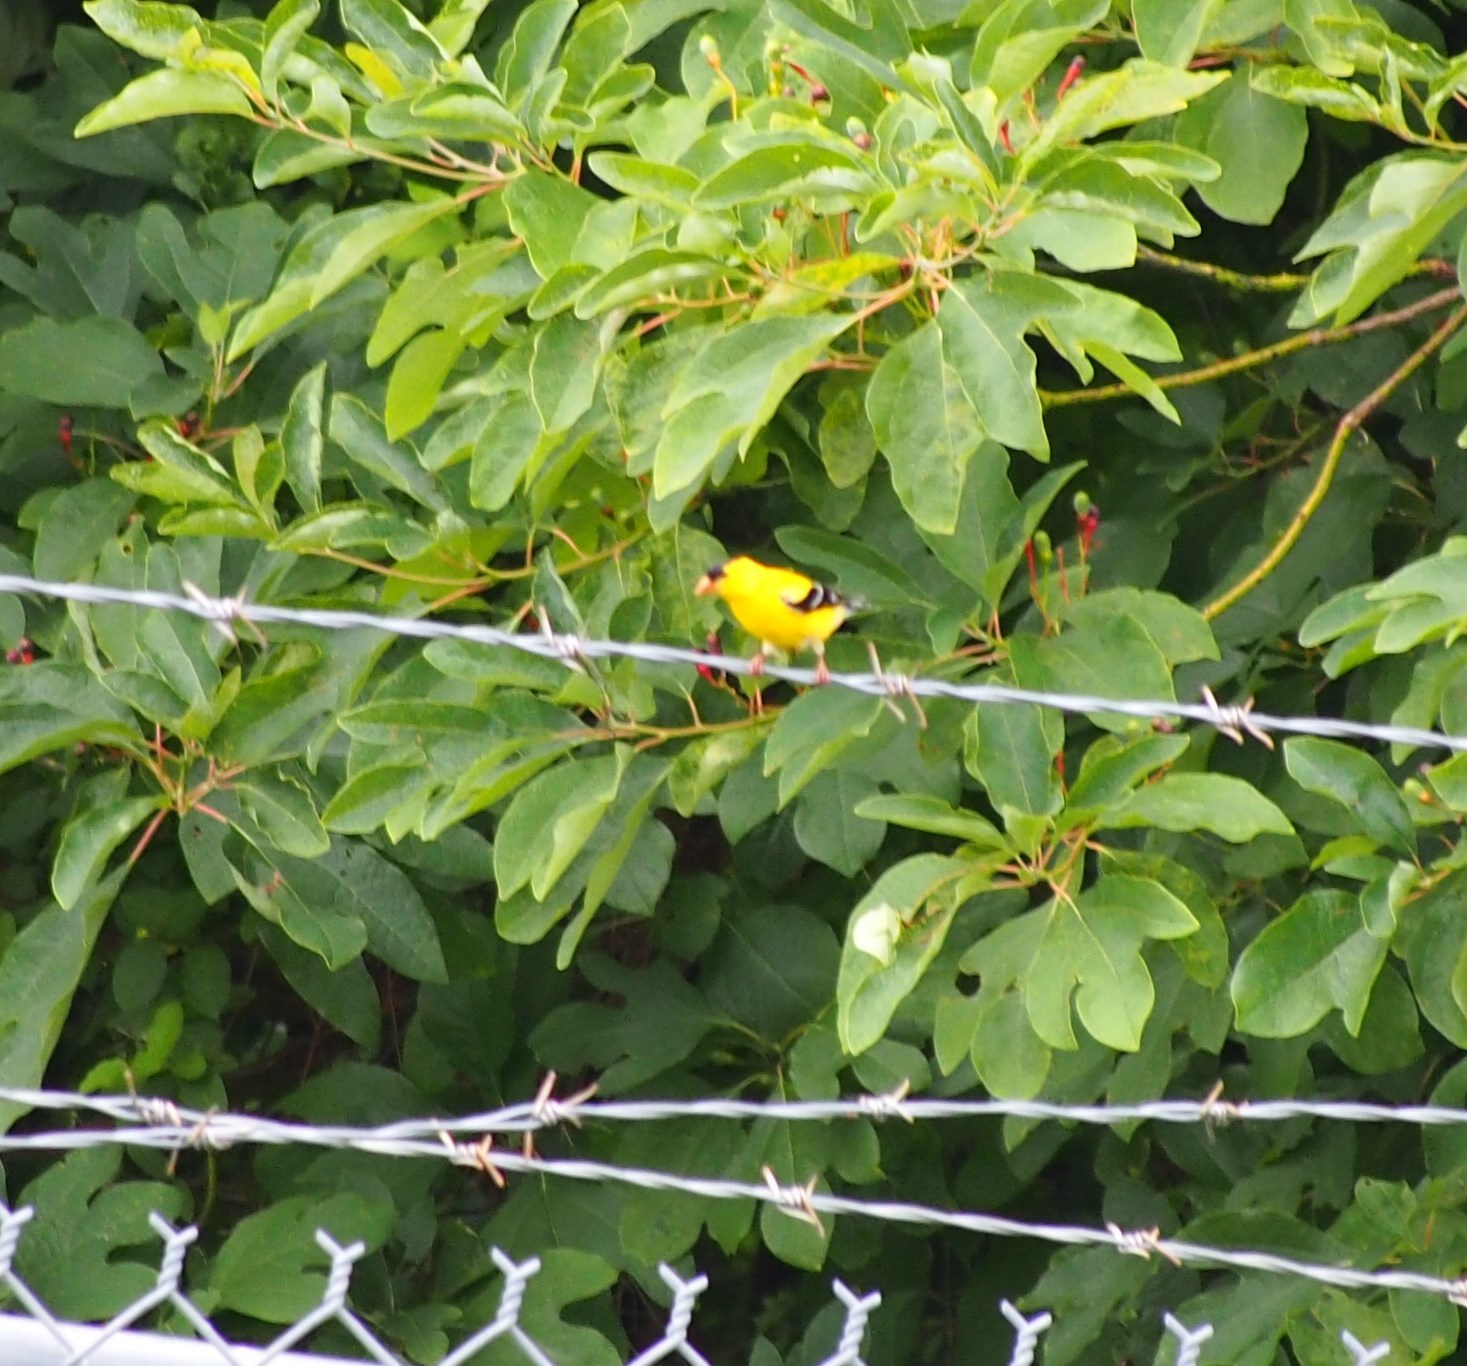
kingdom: Animalia
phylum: Chordata
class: Aves
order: Passeriformes
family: Fringillidae
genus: Spinus
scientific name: Spinus tristis
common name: American goldfinch
